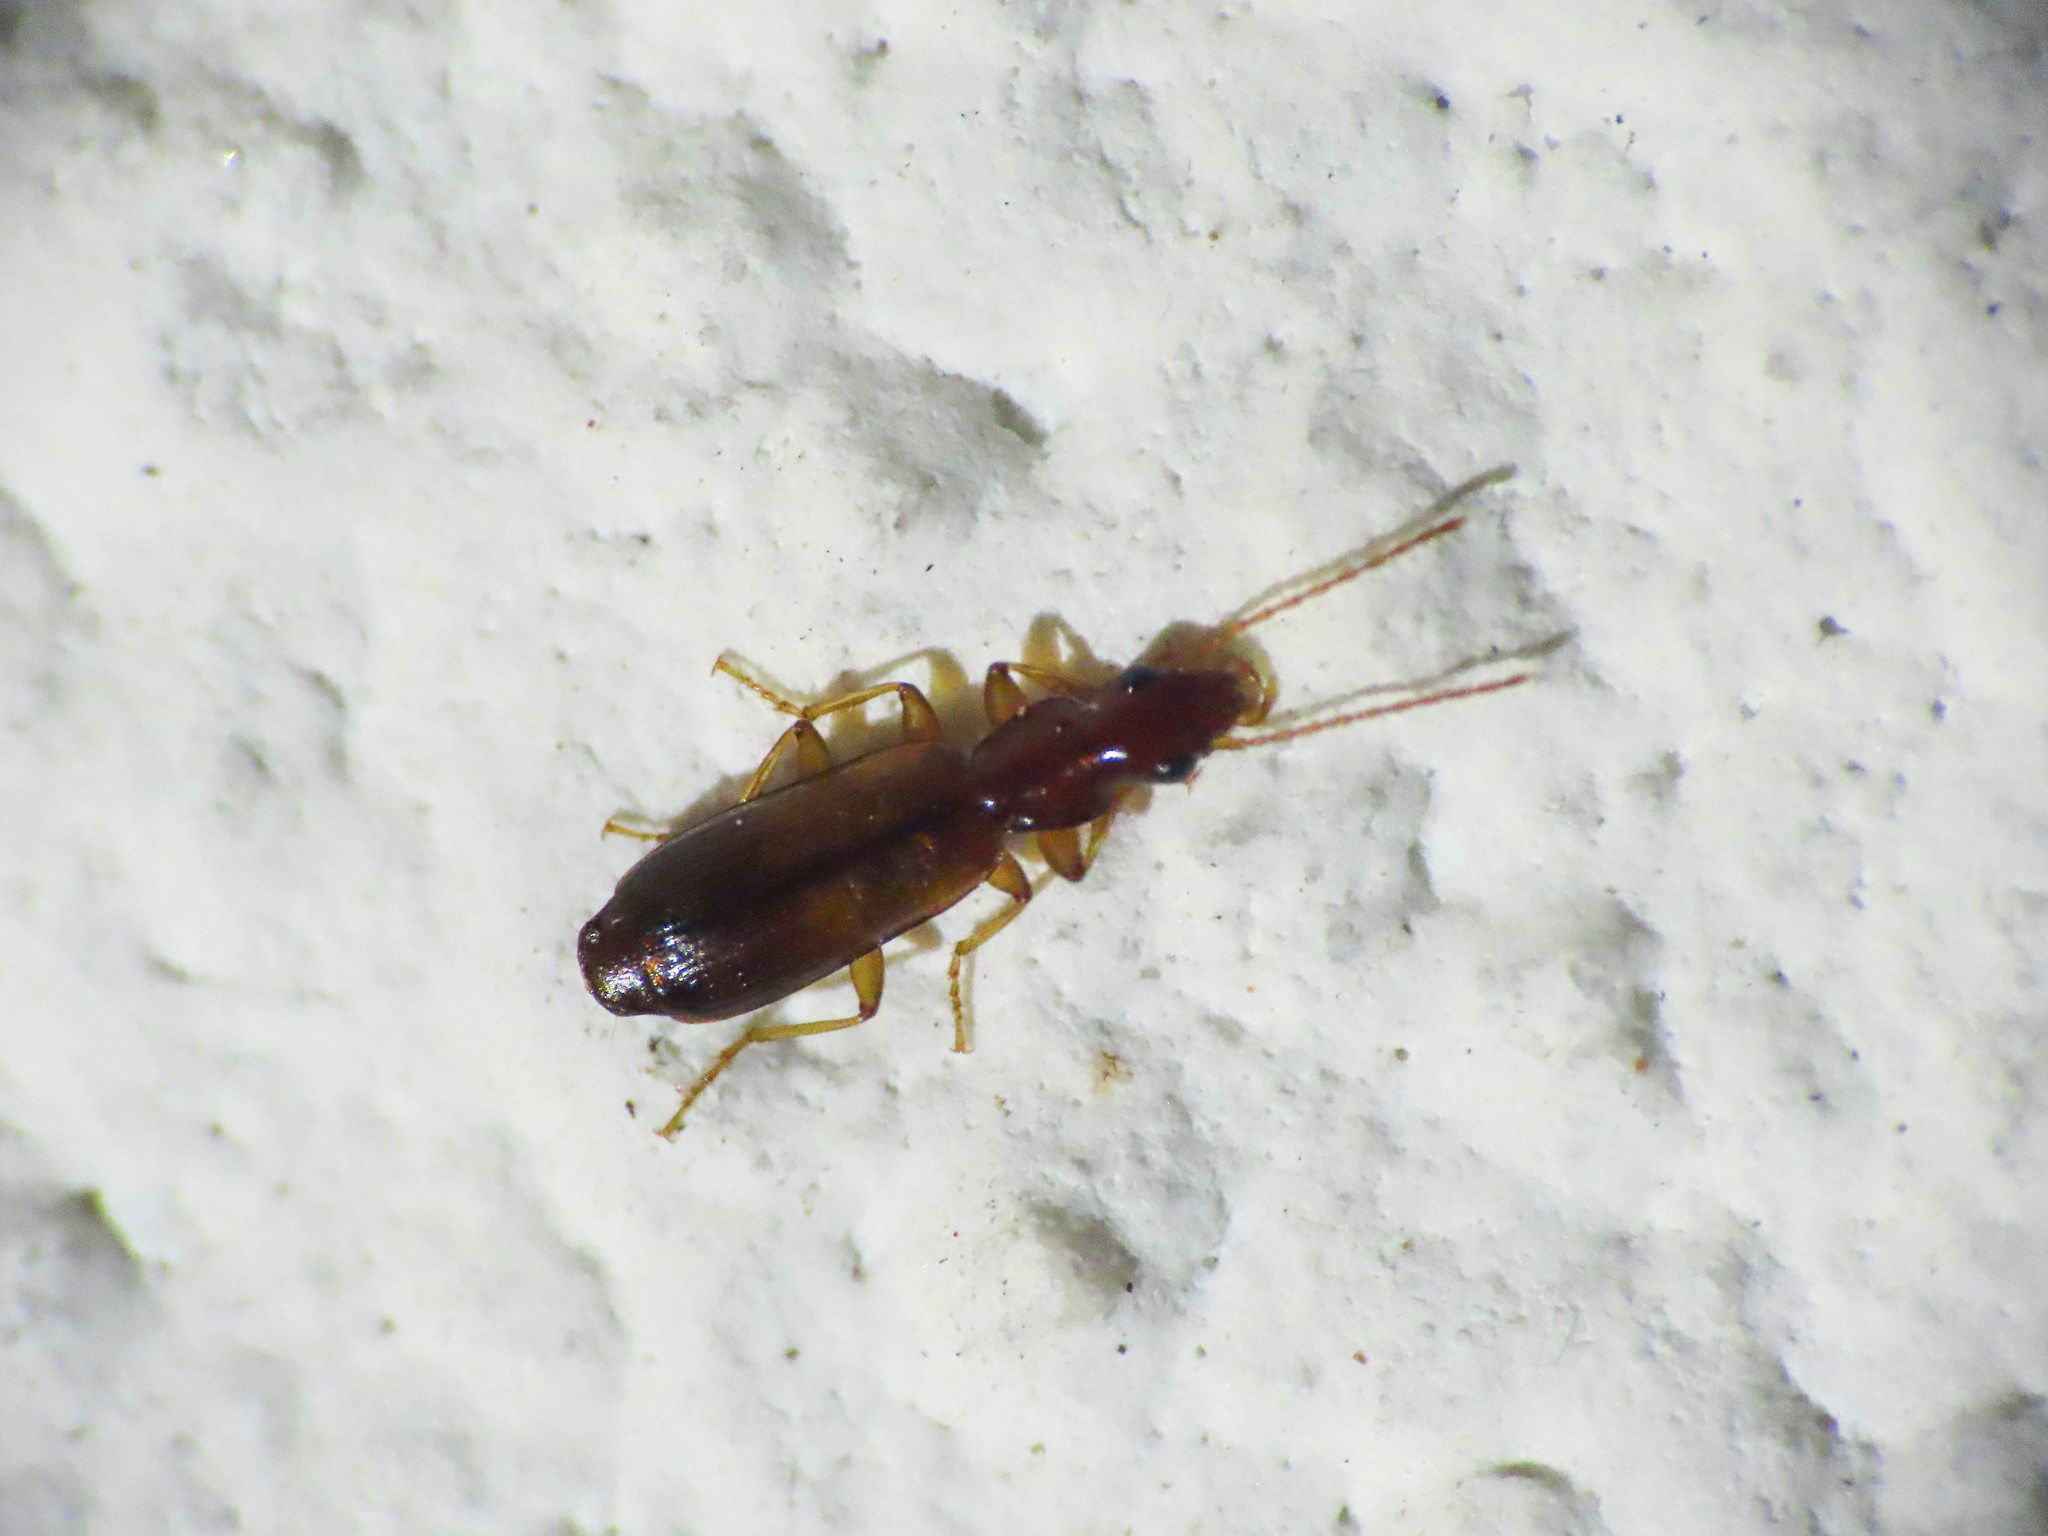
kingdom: Animalia
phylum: Arthropoda
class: Insecta
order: Coleoptera
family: Carabidae
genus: Paradromius
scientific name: Paradromius linearis
